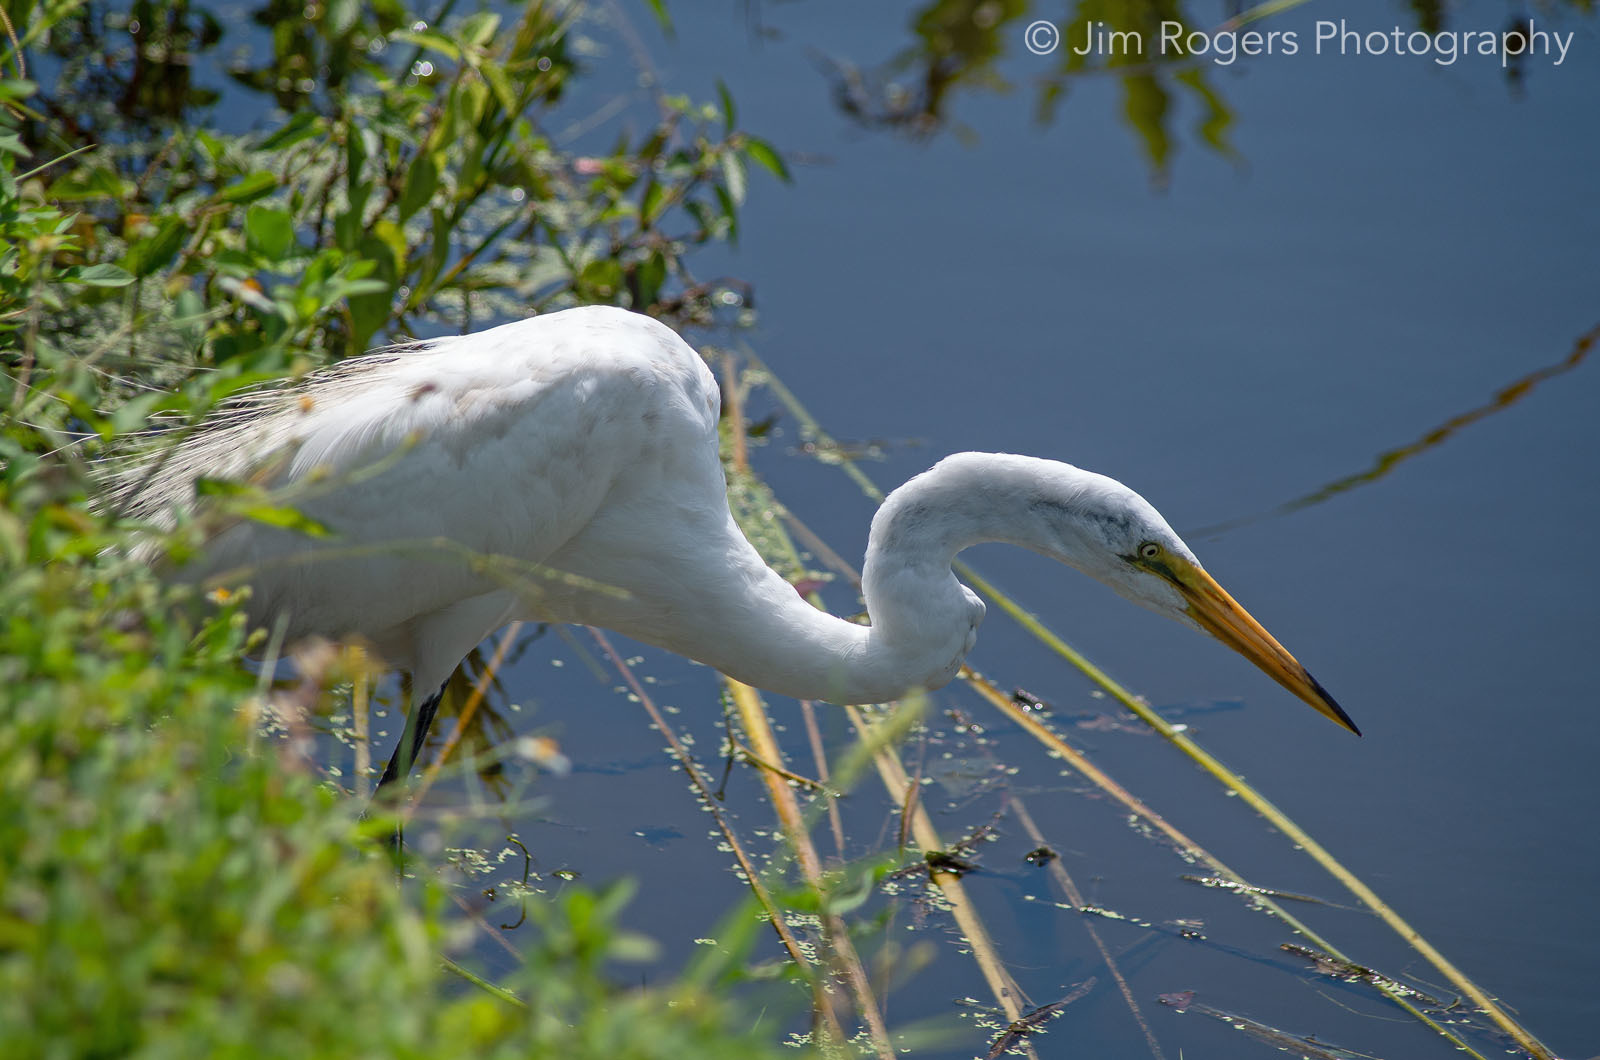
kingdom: Animalia
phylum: Chordata
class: Aves
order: Pelecaniformes
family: Ardeidae
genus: Ardea
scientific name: Ardea alba
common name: Great egret
